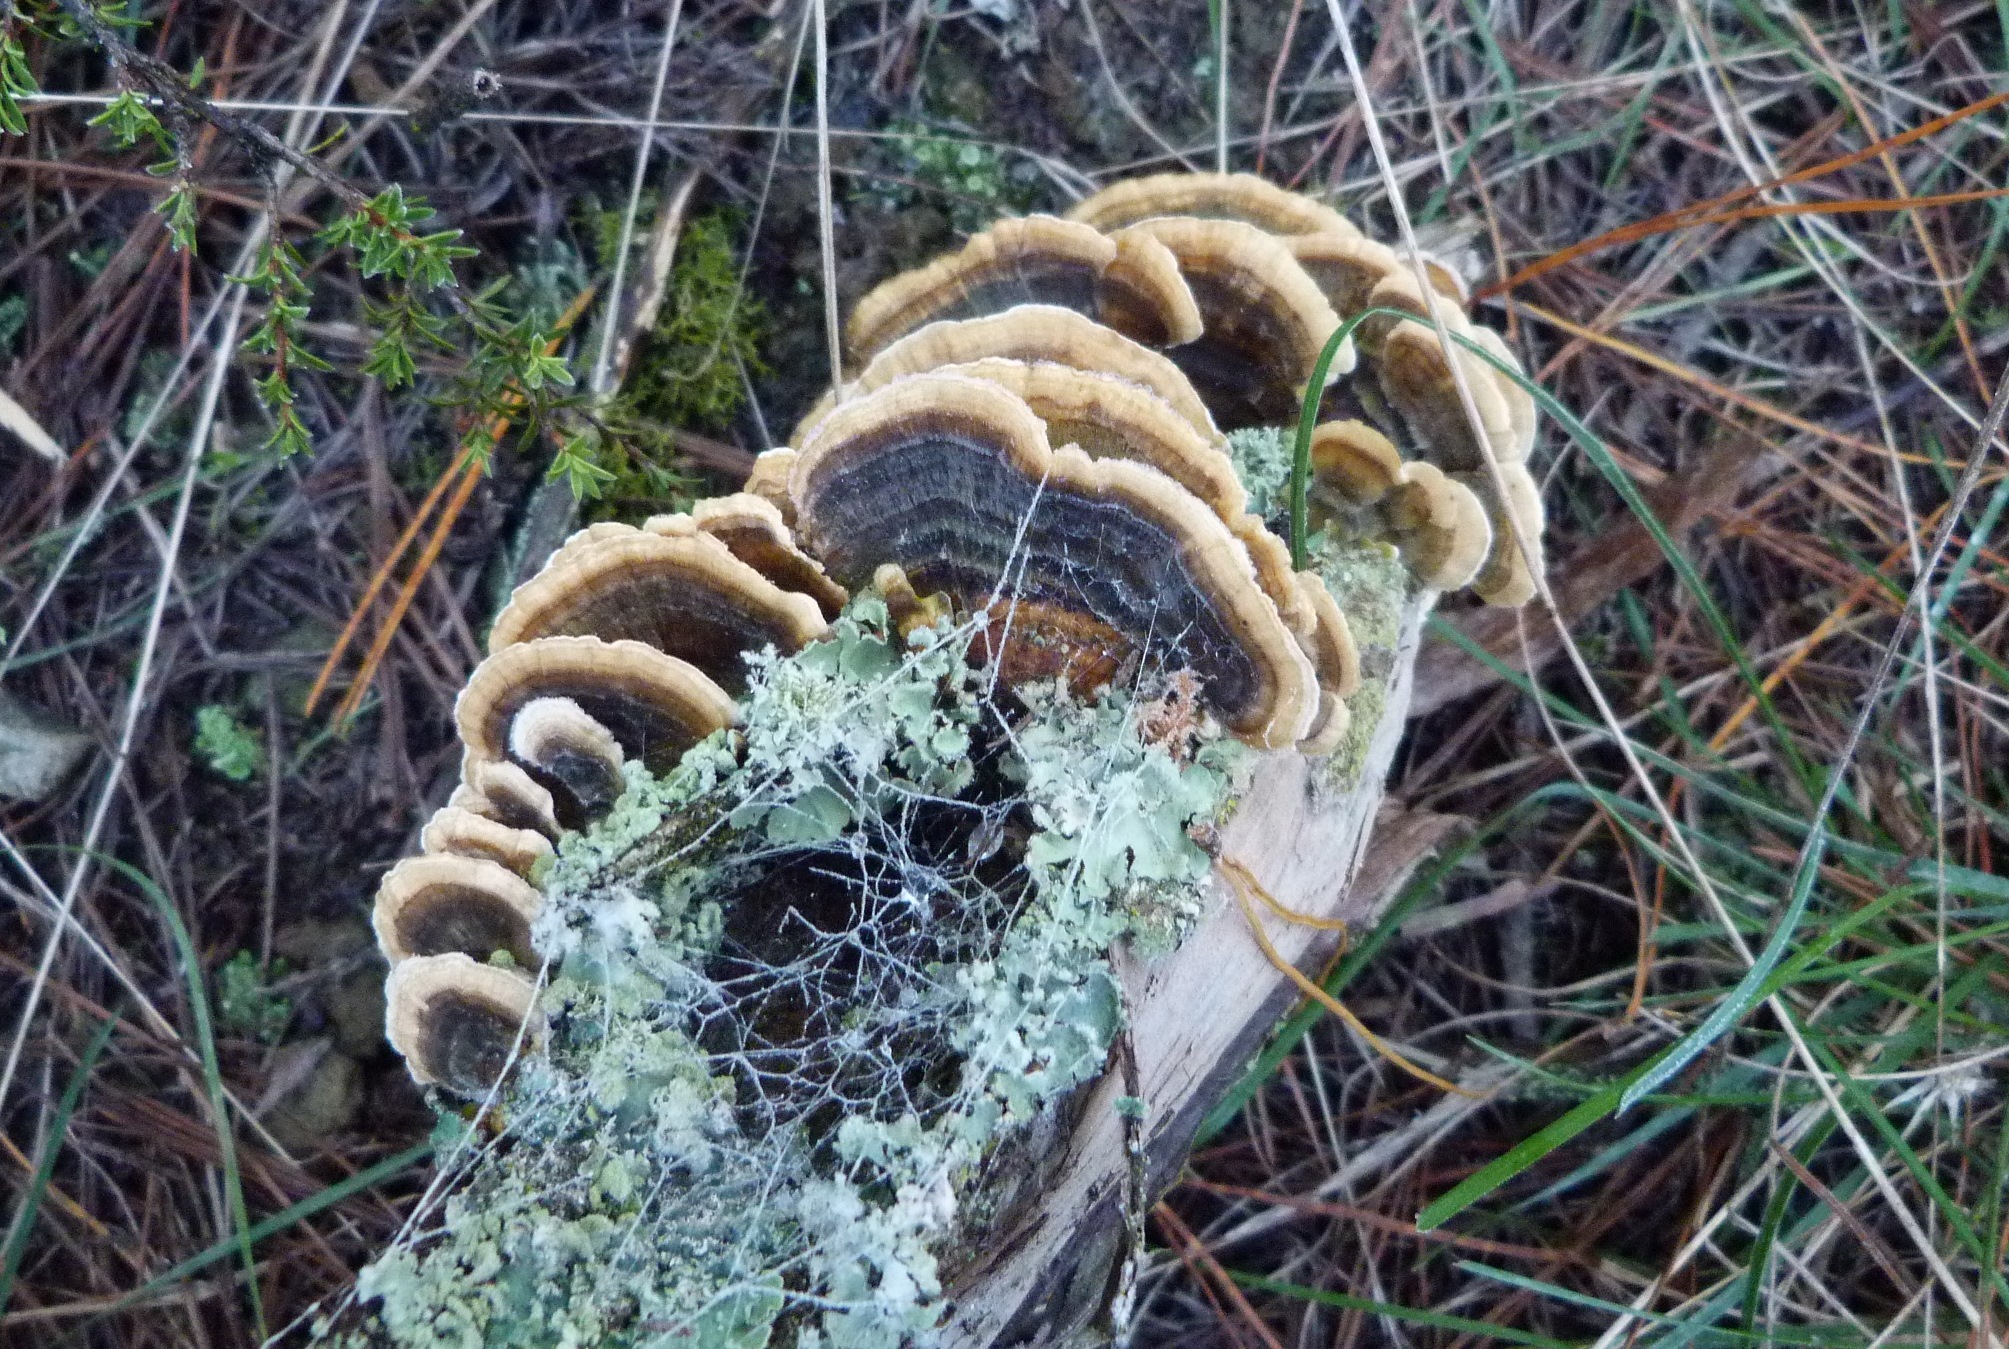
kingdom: Fungi
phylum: Basidiomycota
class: Agaricomycetes
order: Polyporales
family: Polyporaceae
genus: Trametes
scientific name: Trametes versicolor
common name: Turkeytail
